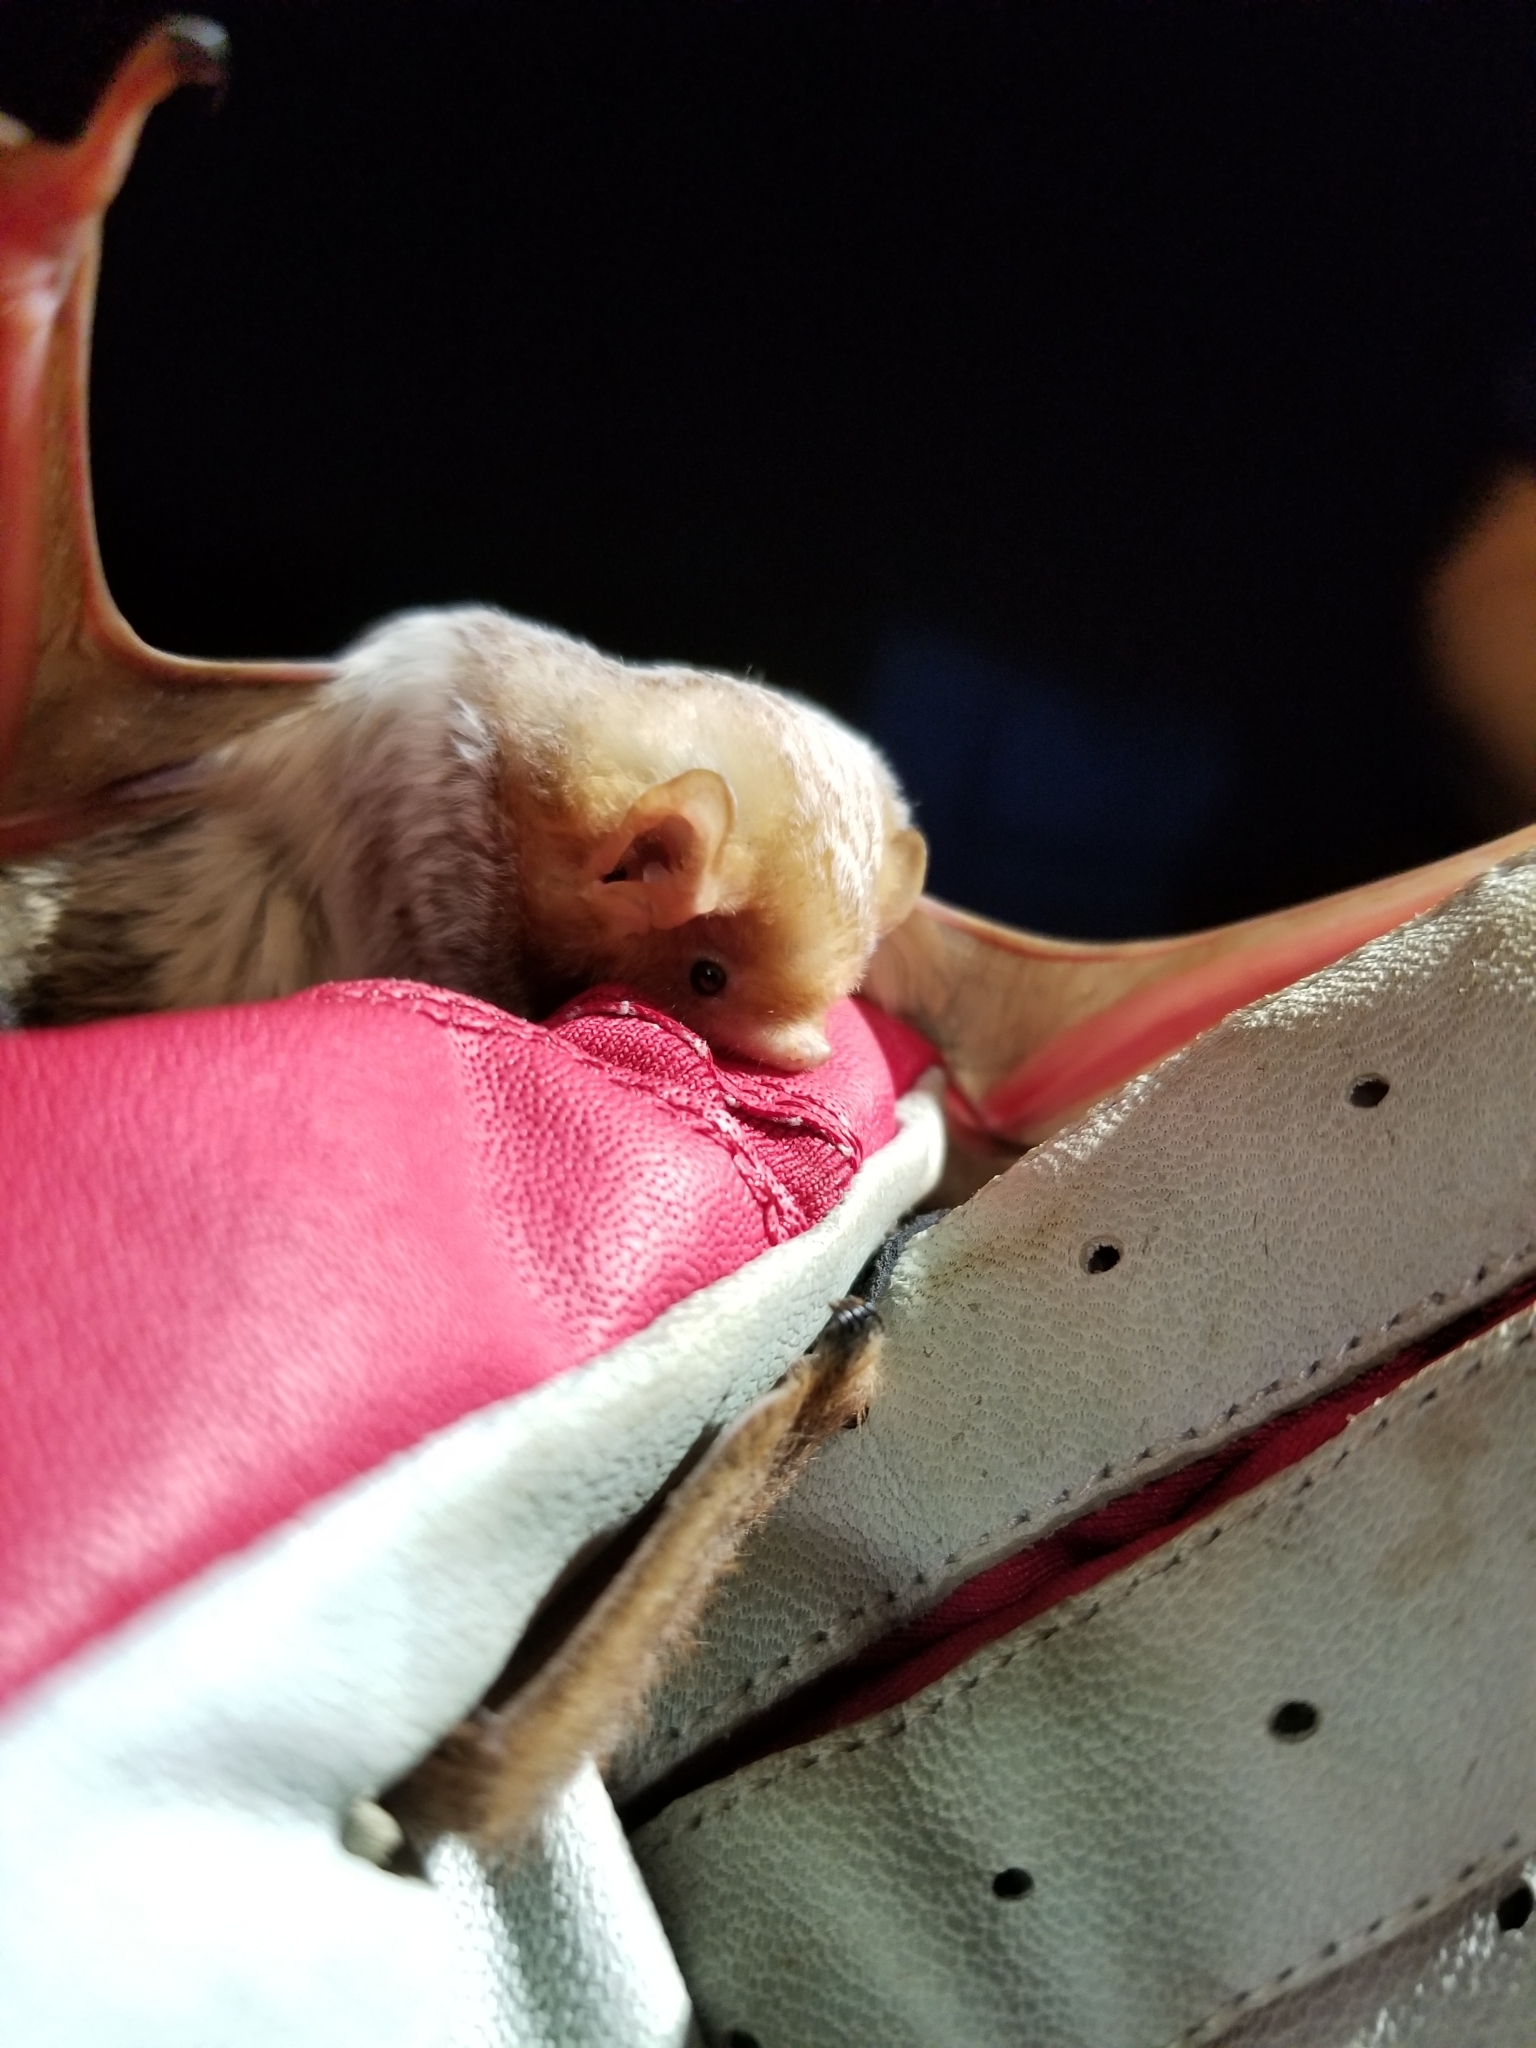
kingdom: Animalia
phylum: Chordata
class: Mammalia
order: Chiroptera
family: Vespertilionidae
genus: Lasiurus
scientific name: Lasiurus borealis
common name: Eastern red bat
